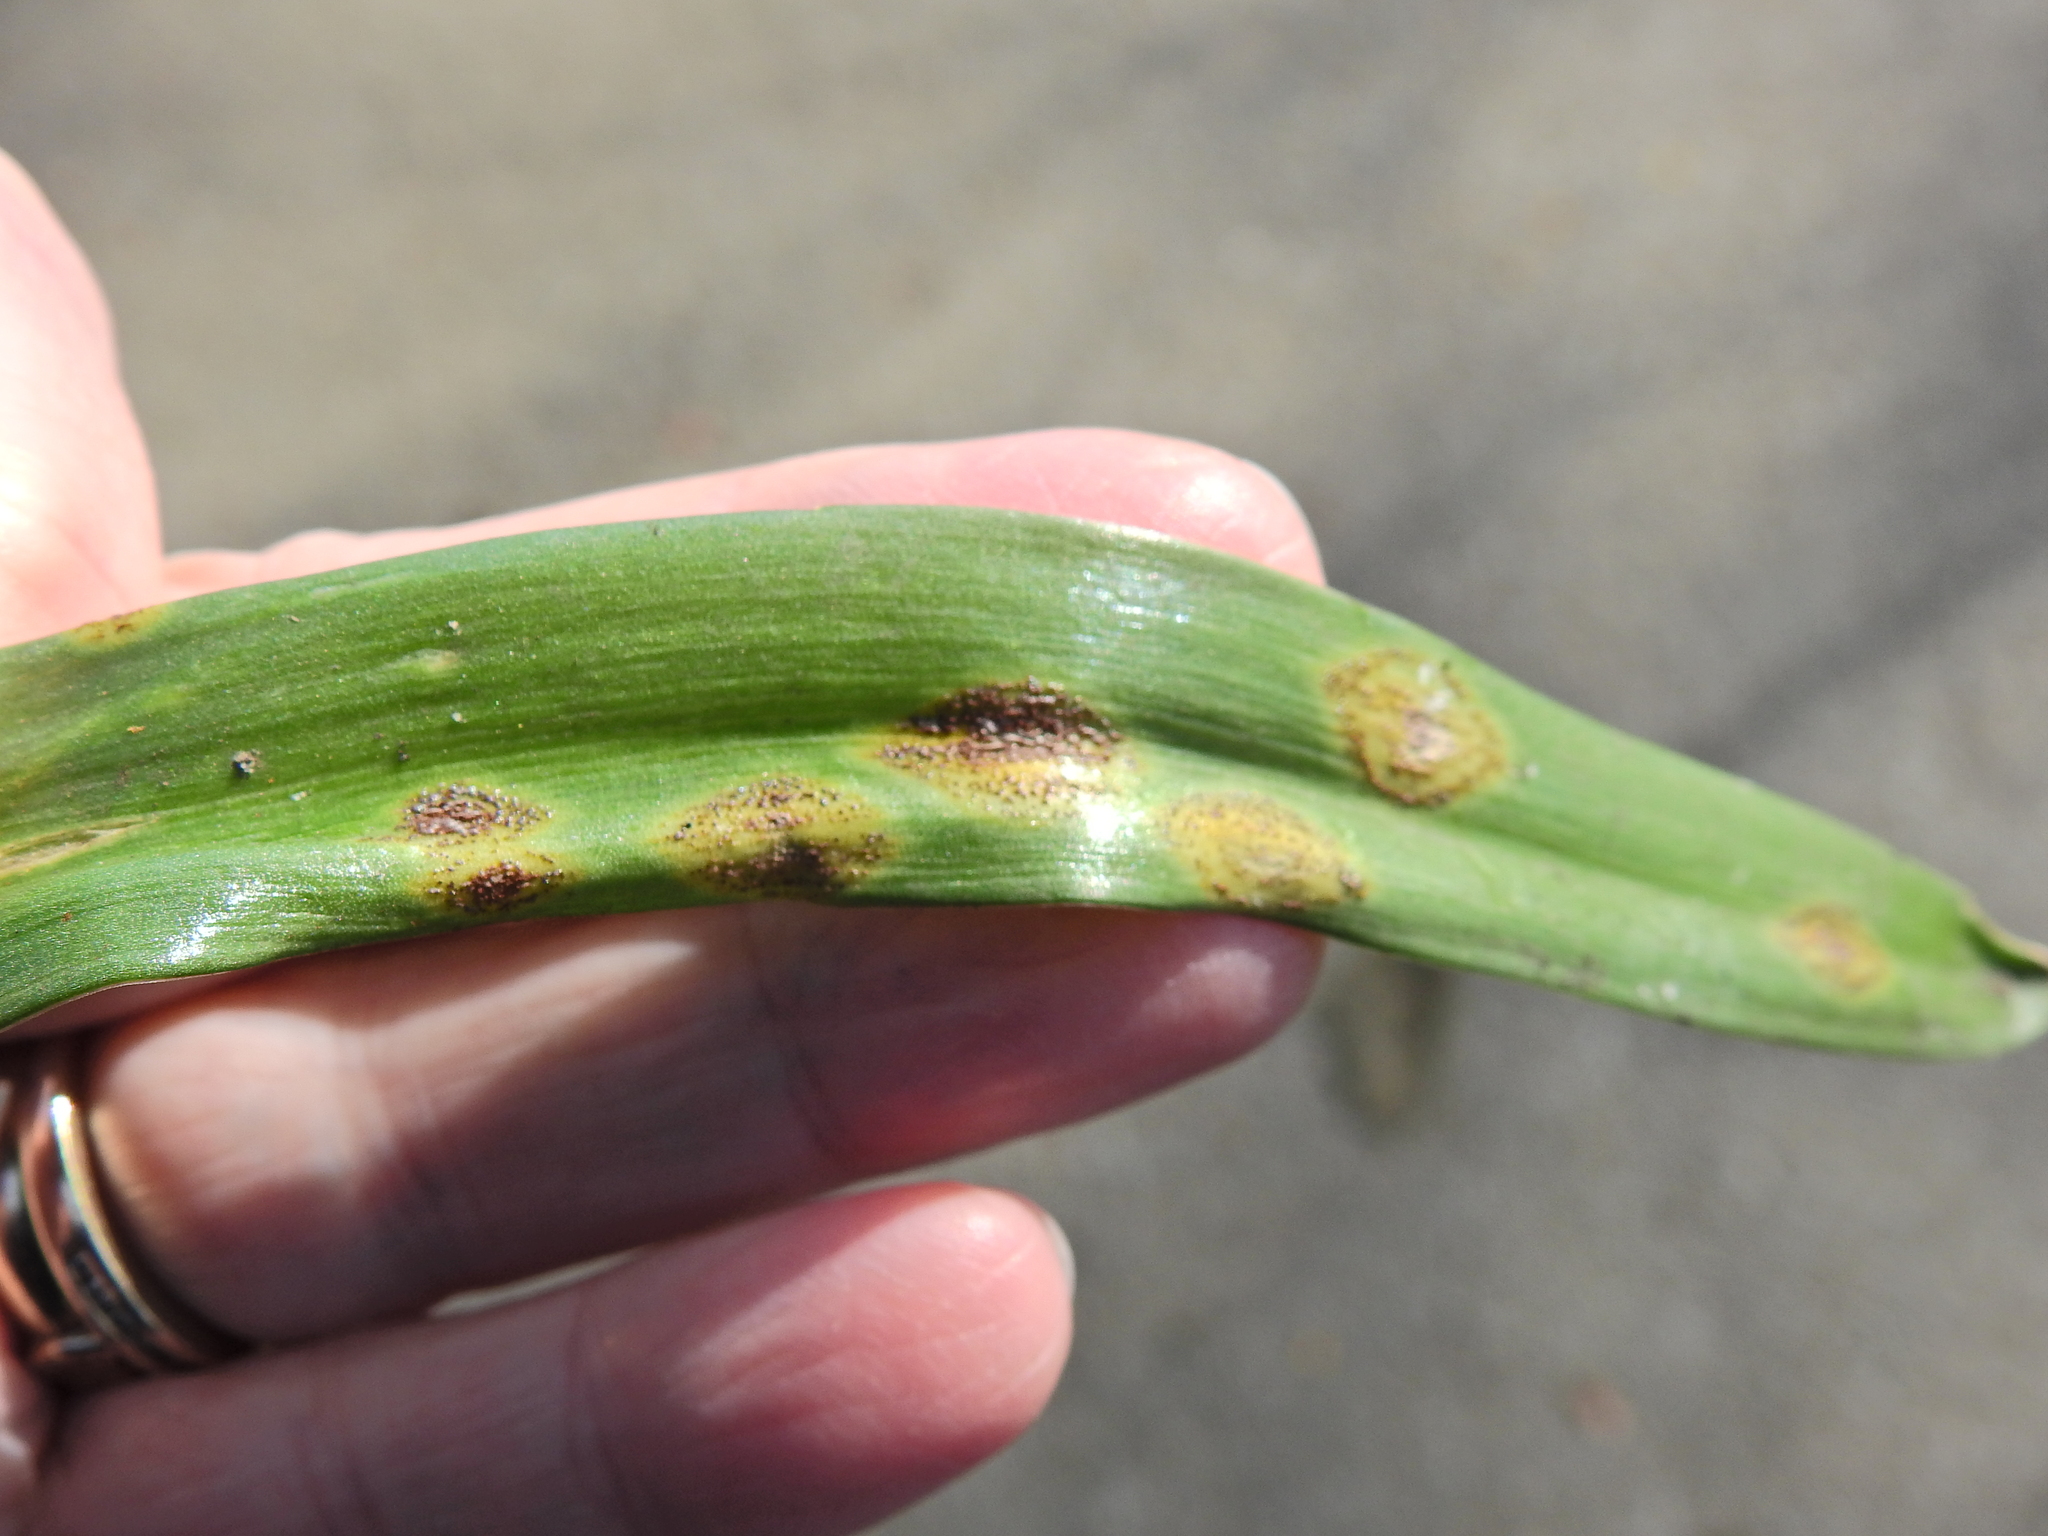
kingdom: Fungi
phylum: Basidiomycota
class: Pucciniomycetes
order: Pucciniales
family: Pucciniaceae
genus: Uromyces
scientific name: Uromyces hyacinthi
